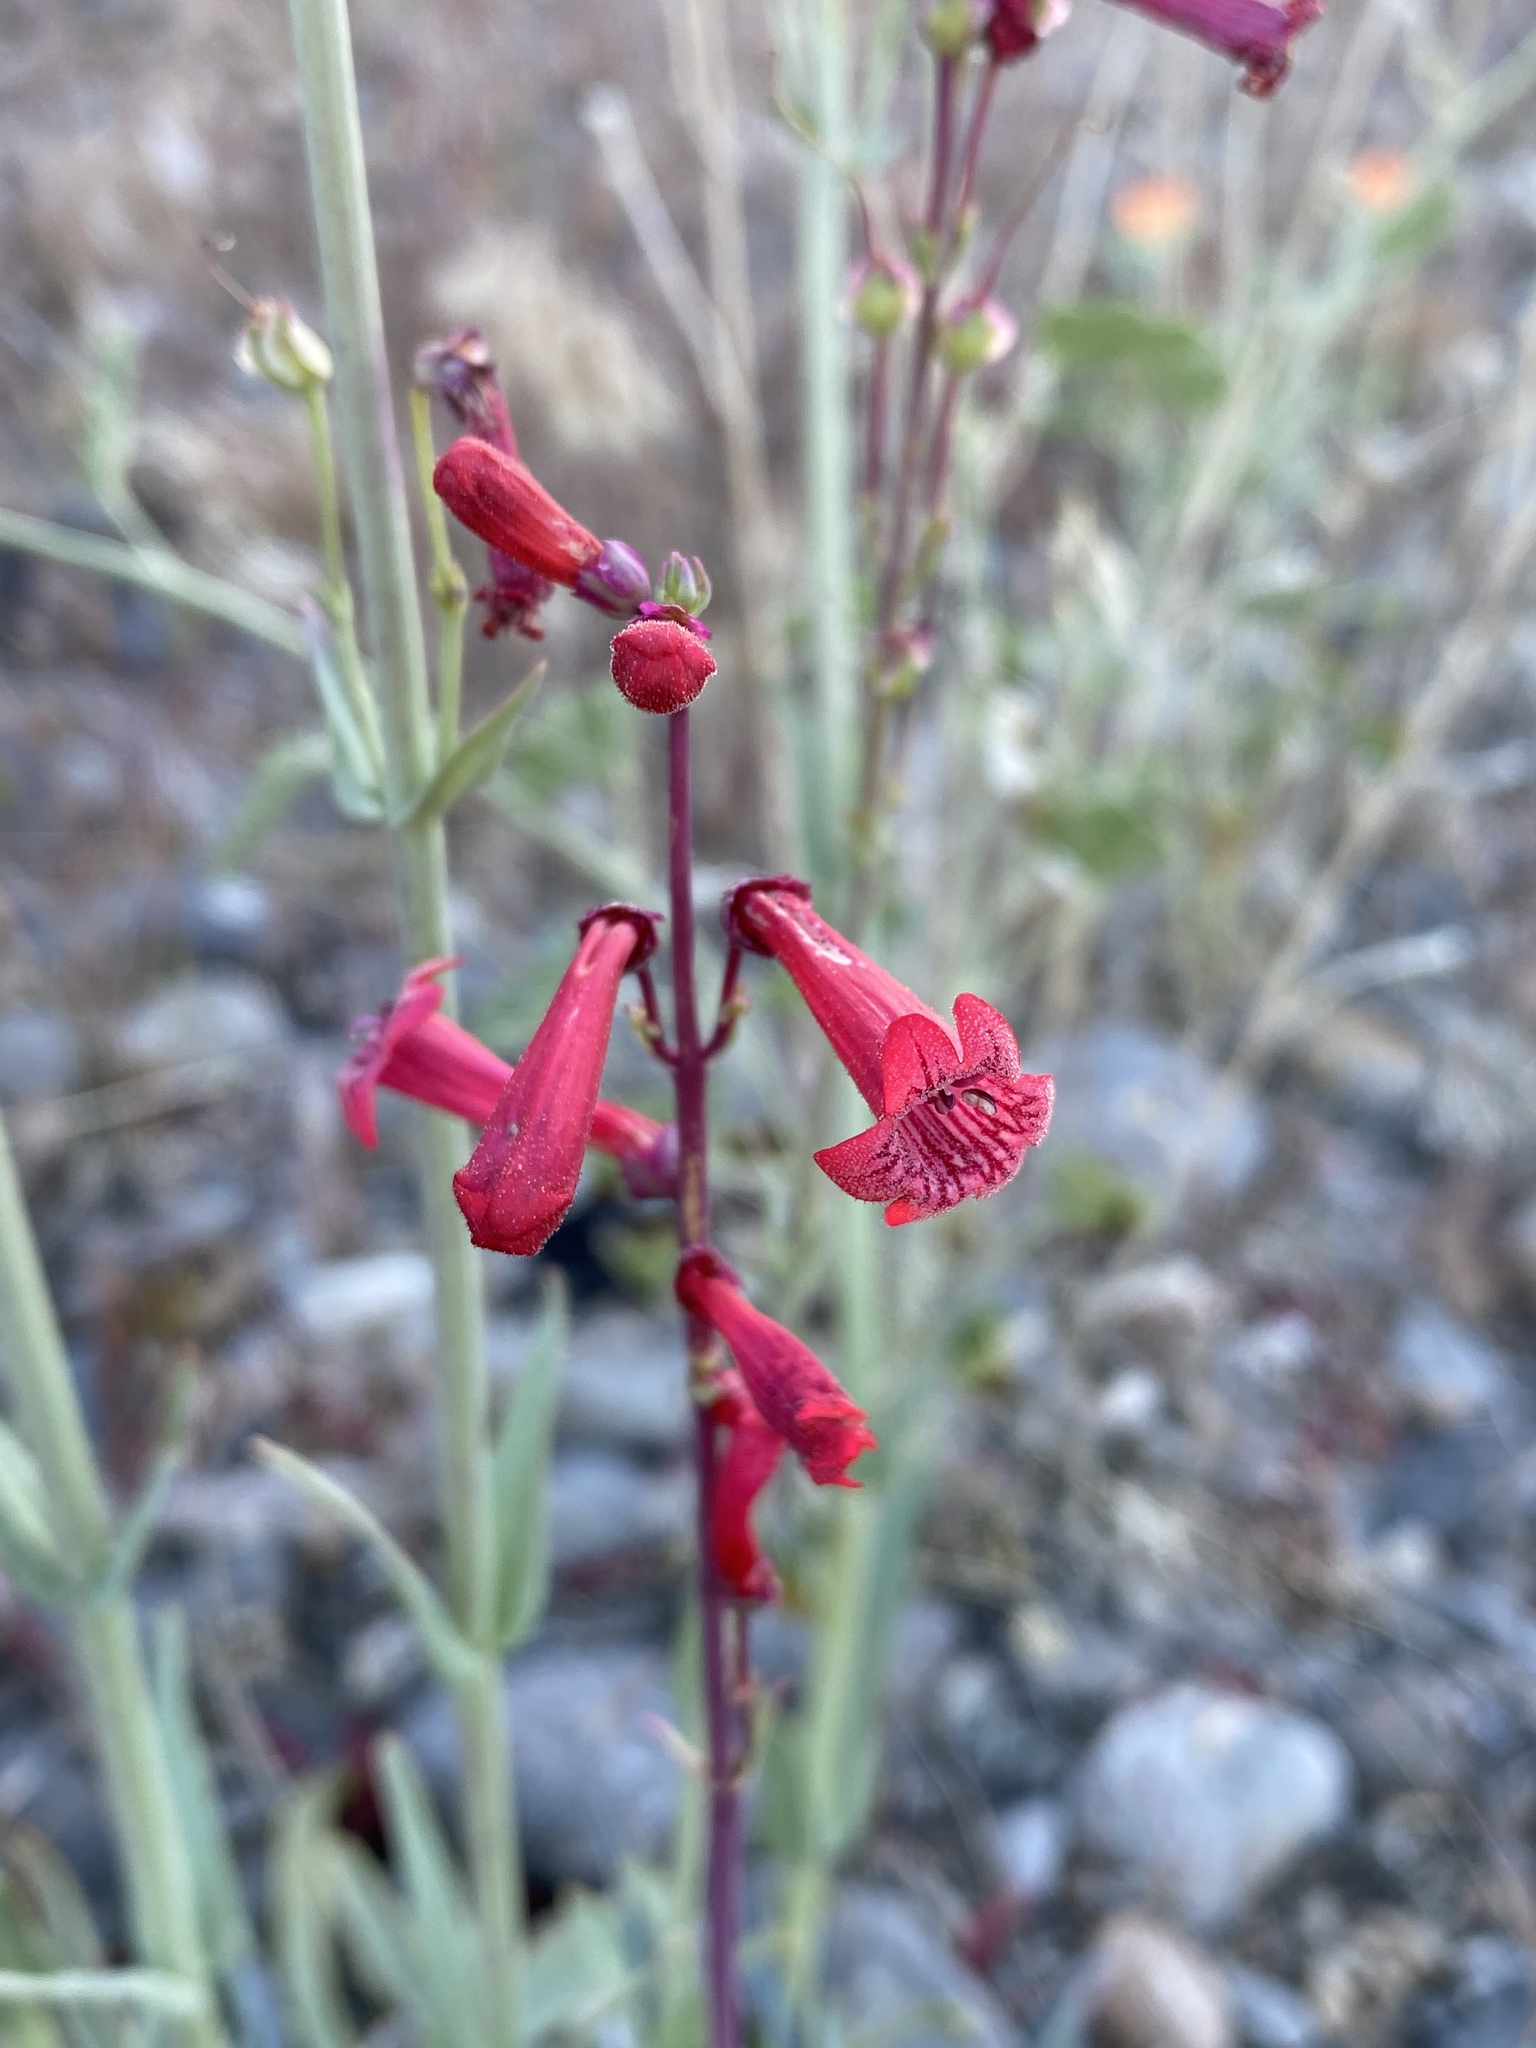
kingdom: Plantae
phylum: Tracheophyta
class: Magnoliopsida
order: Lamiales
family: Plantaginaceae
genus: Penstemon
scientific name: Penstemon utahensis
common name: Utah penstemon
